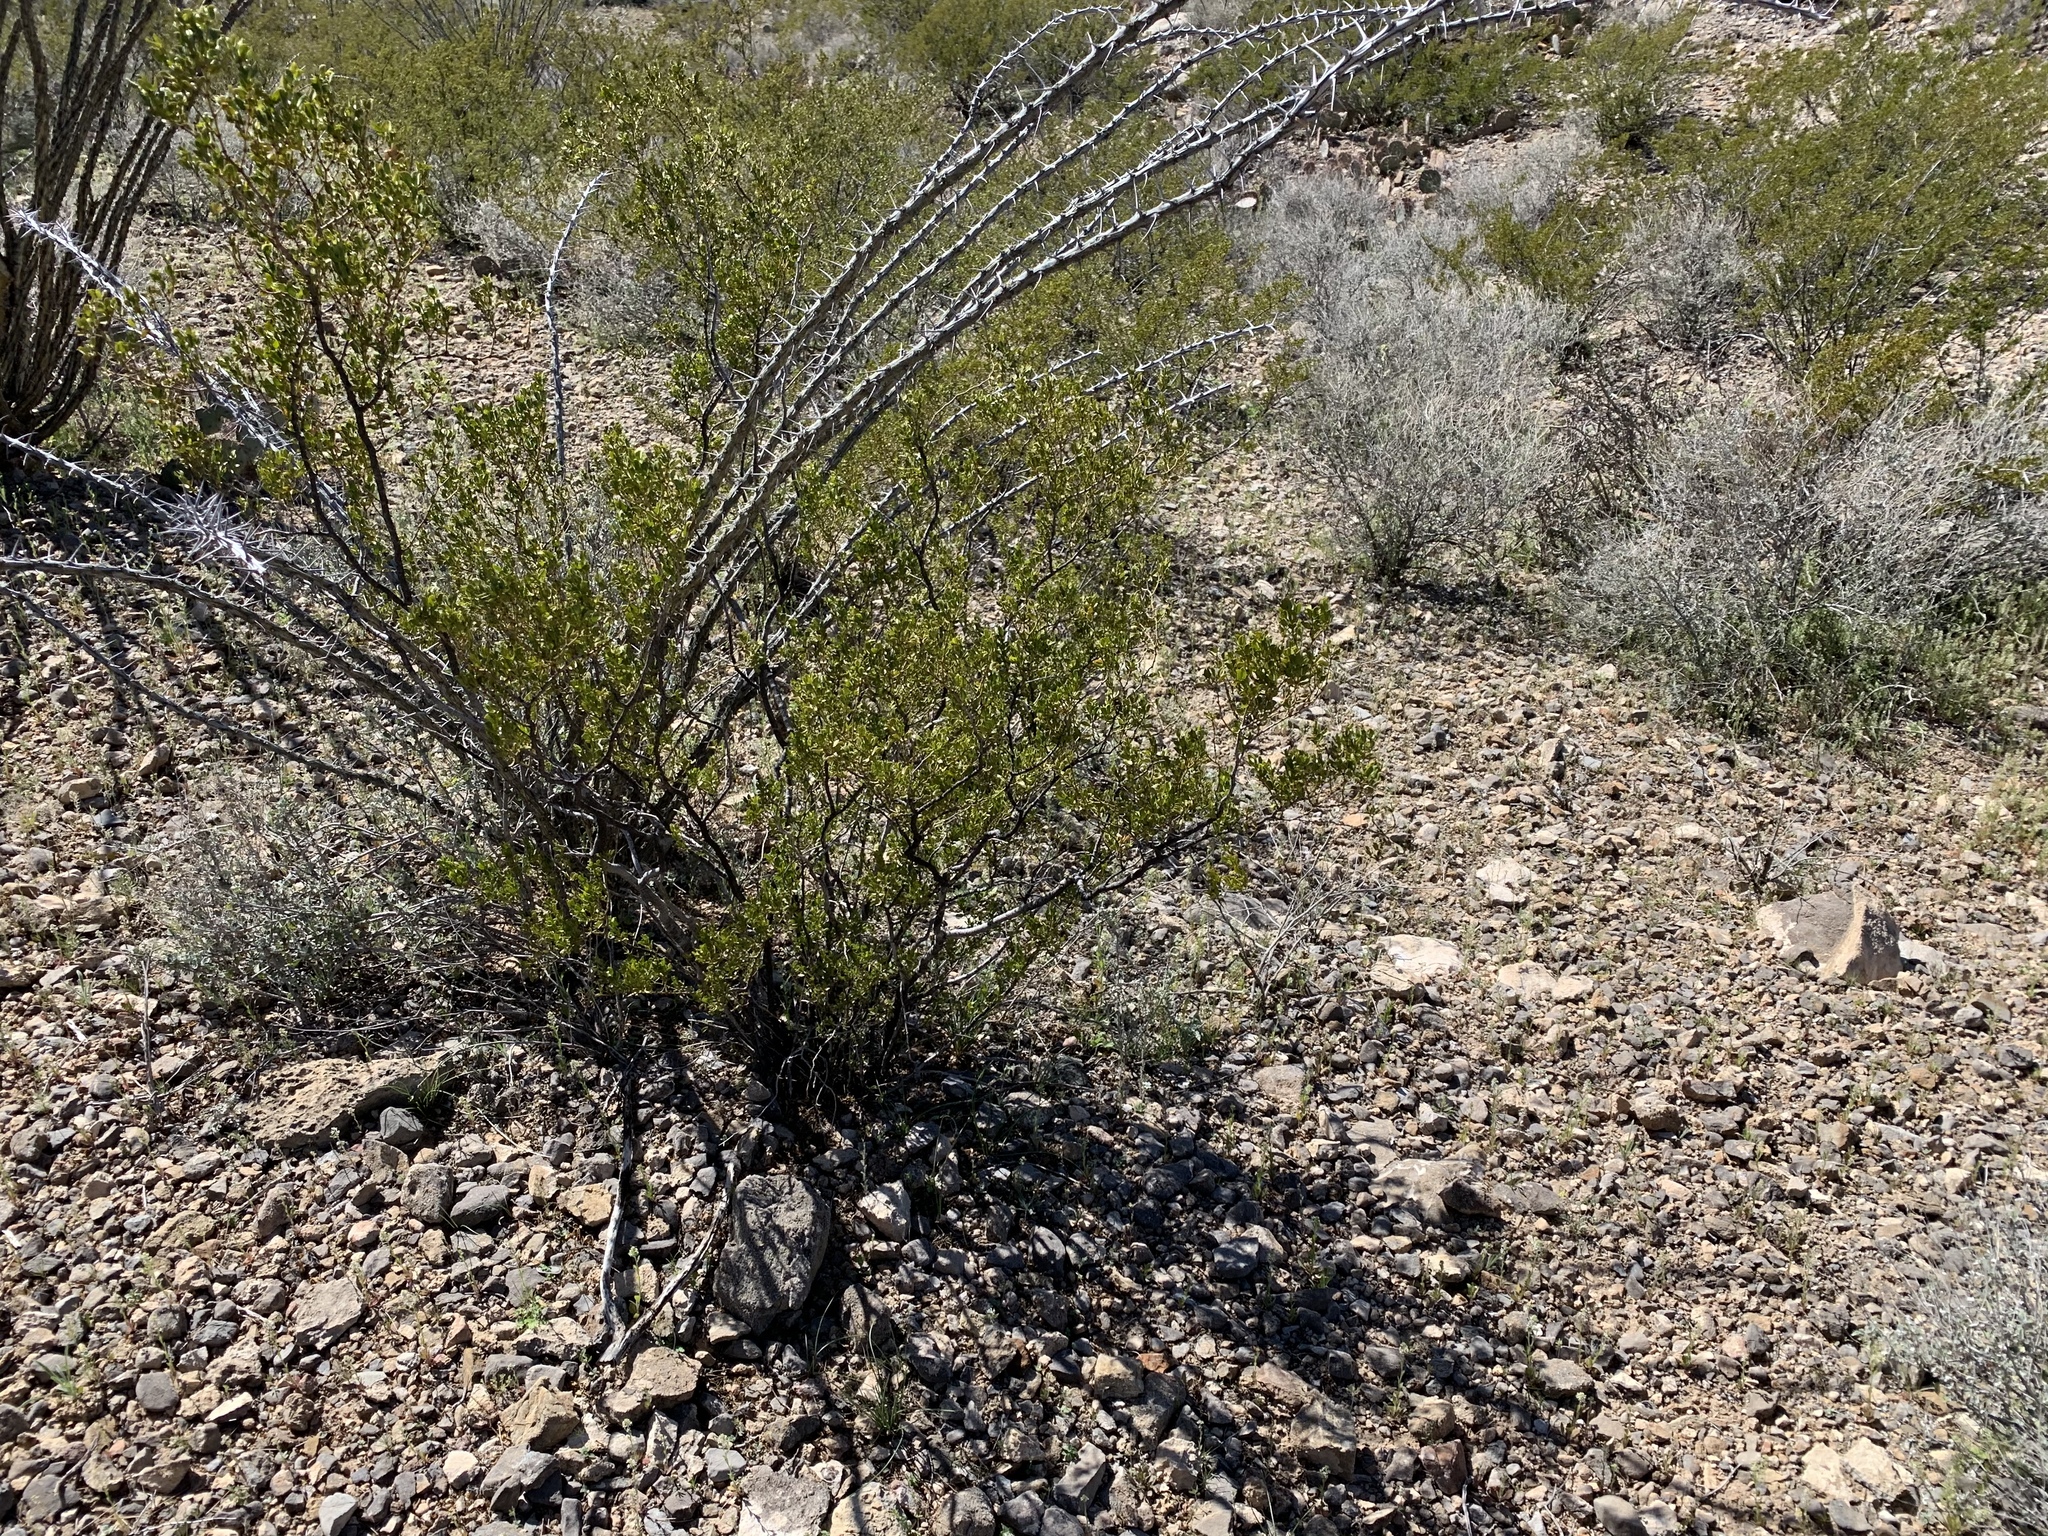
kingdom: Plantae
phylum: Tracheophyta
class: Magnoliopsida
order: Zygophyllales
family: Zygophyllaceae
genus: Larrea
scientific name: Larrea tridentata
